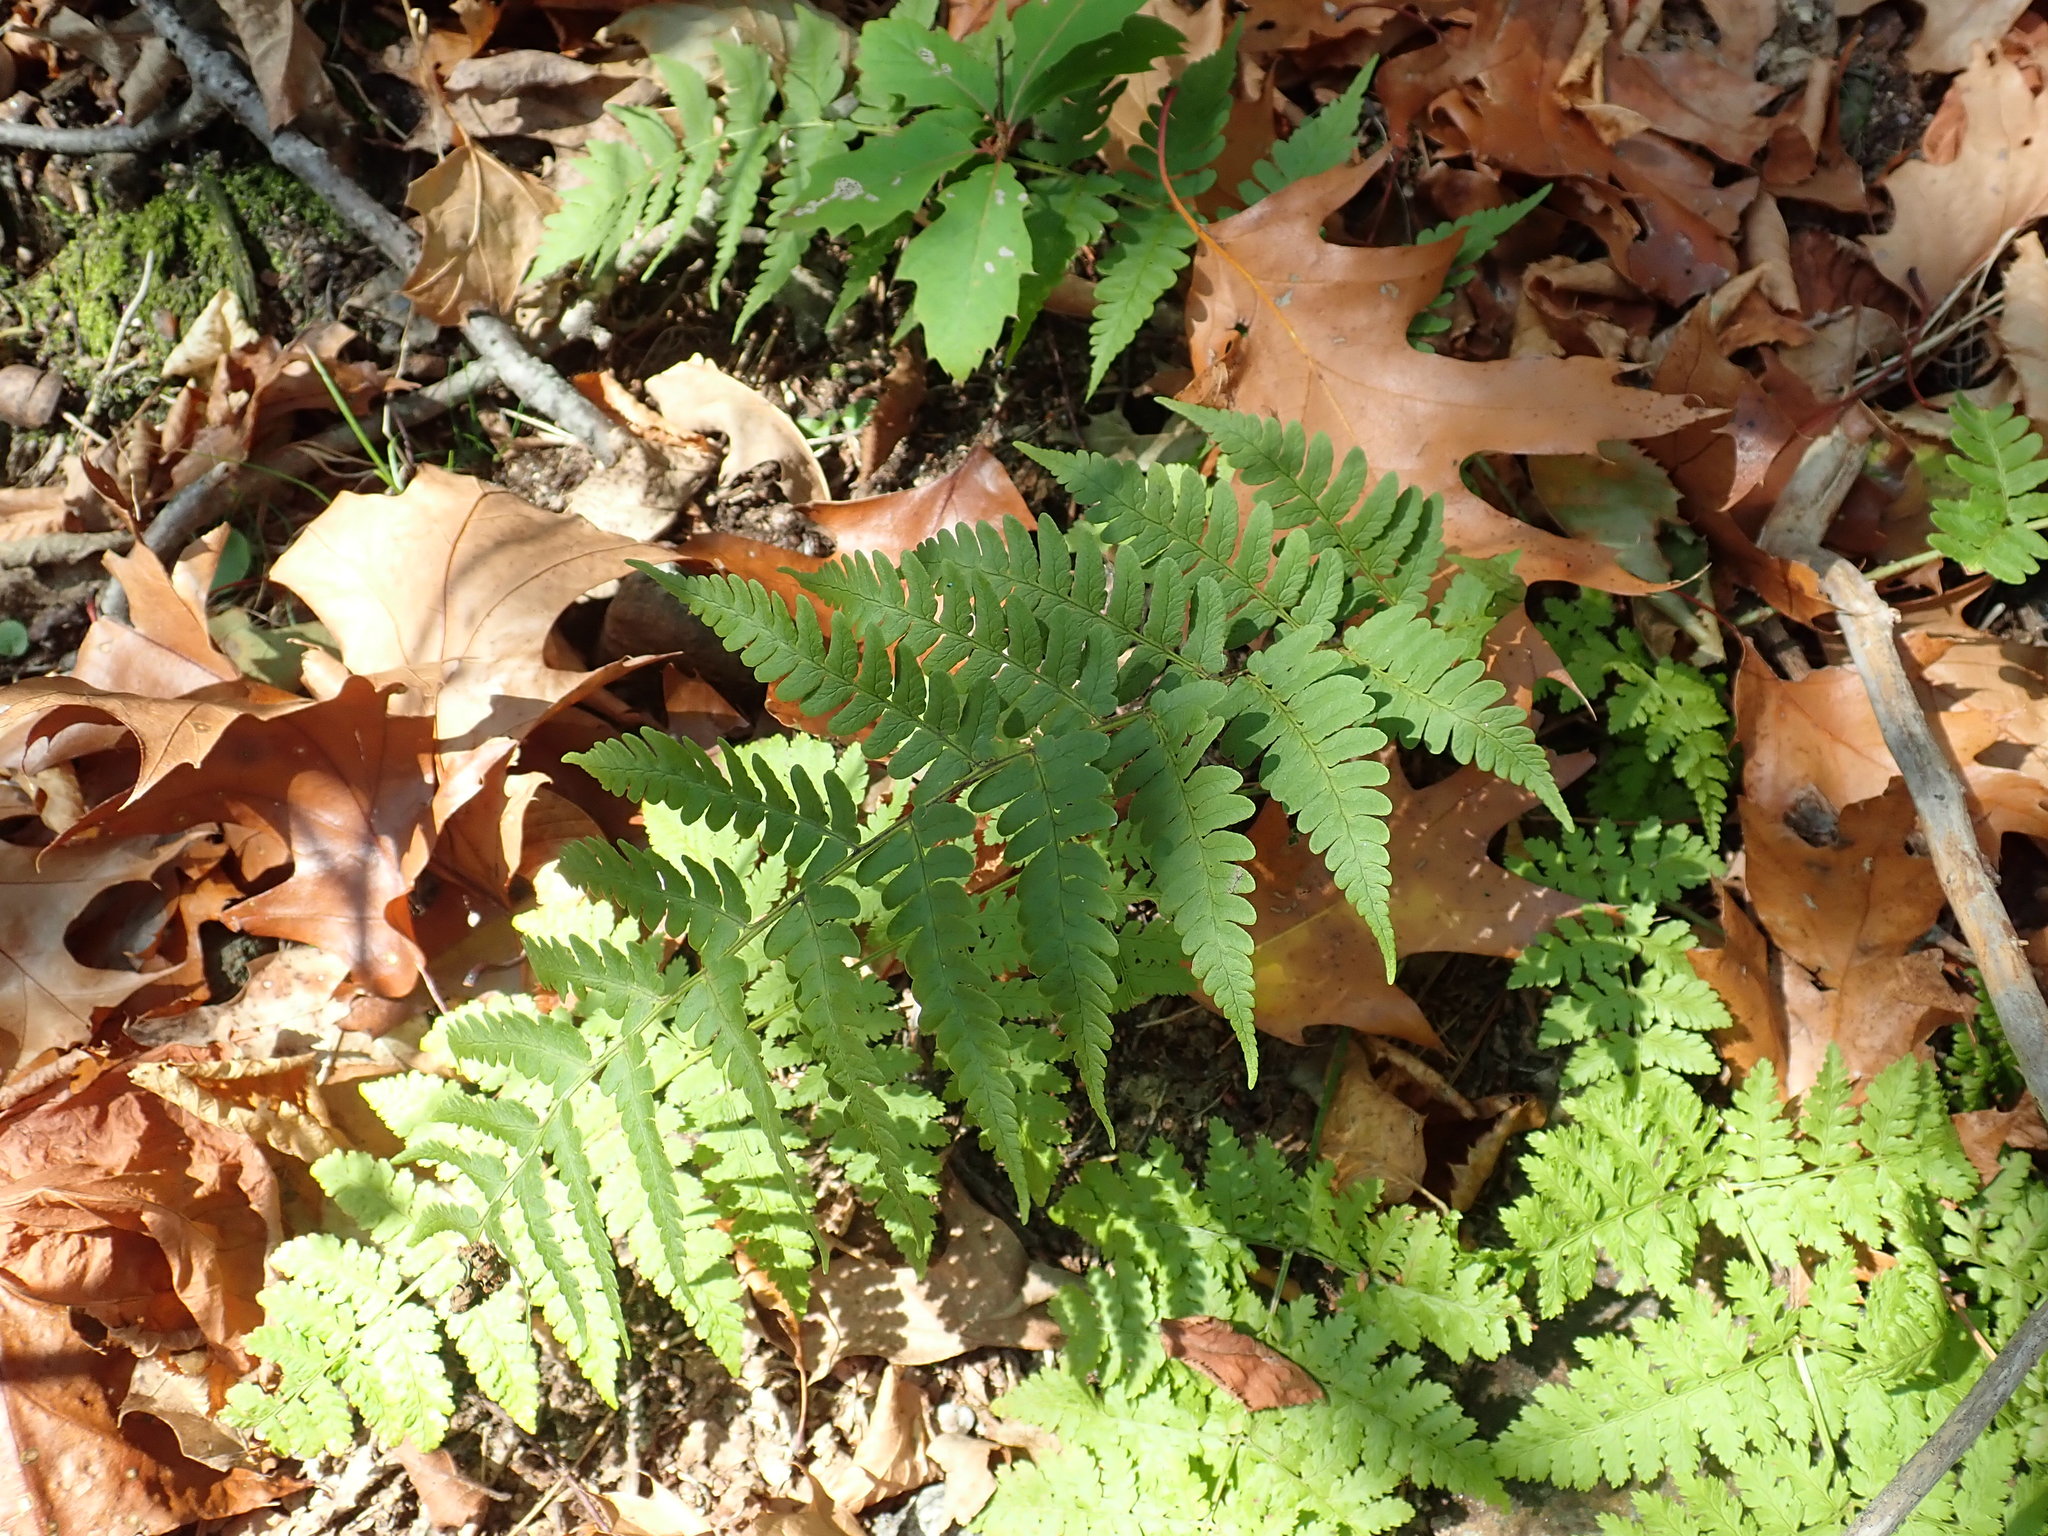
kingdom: Plantae
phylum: Tracheophyta
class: Polypodiopsida
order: Polypodiales
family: Dryopteridaceae
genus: Dryopteris
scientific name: Dryopteris marginalis
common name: Marginal wood fern
